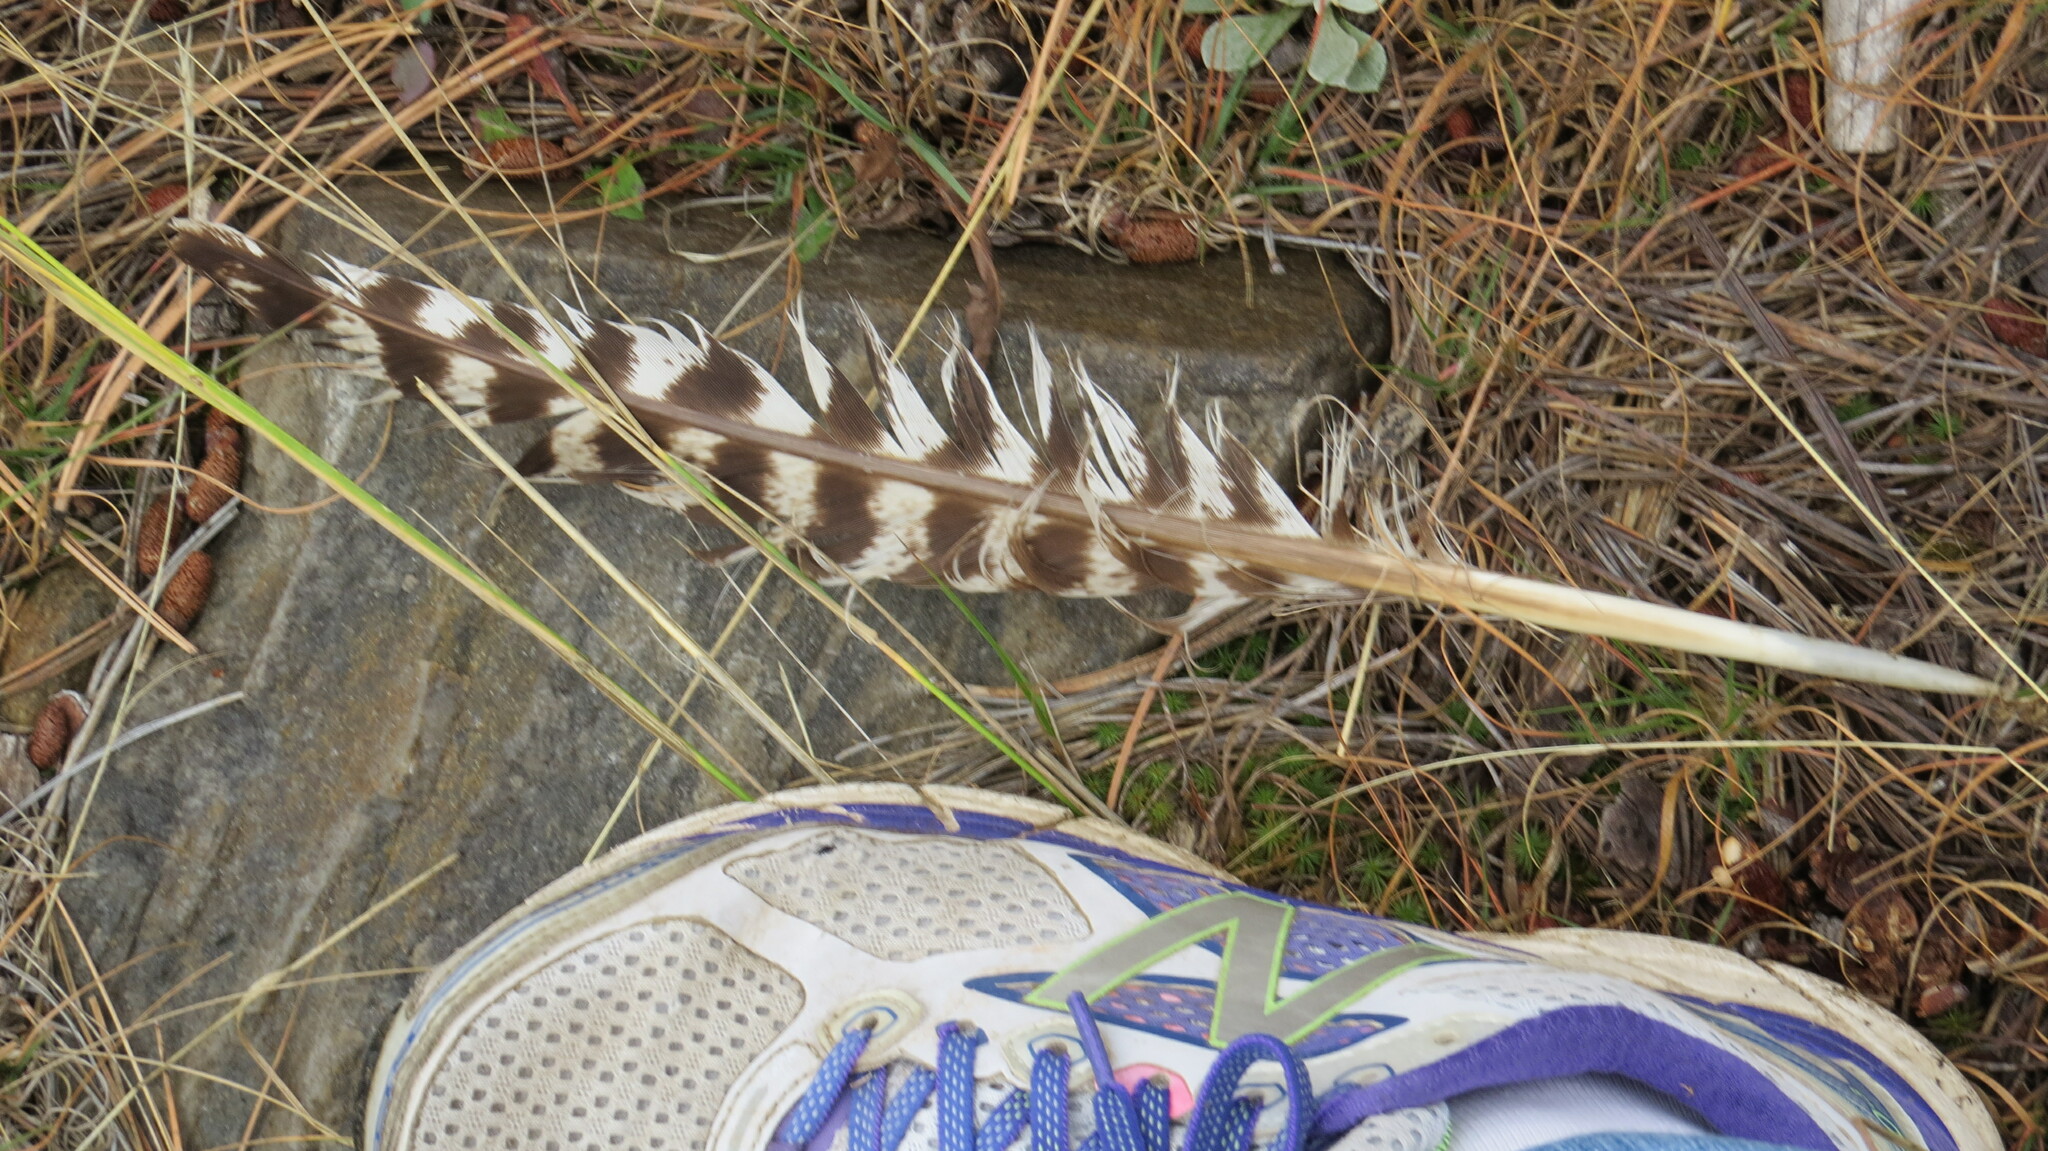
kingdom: Animalia
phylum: Chordata
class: Aves
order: Galliformes
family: Phasianidae
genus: Meleagris
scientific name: Meleagris gallopavo
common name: Wild turkey
